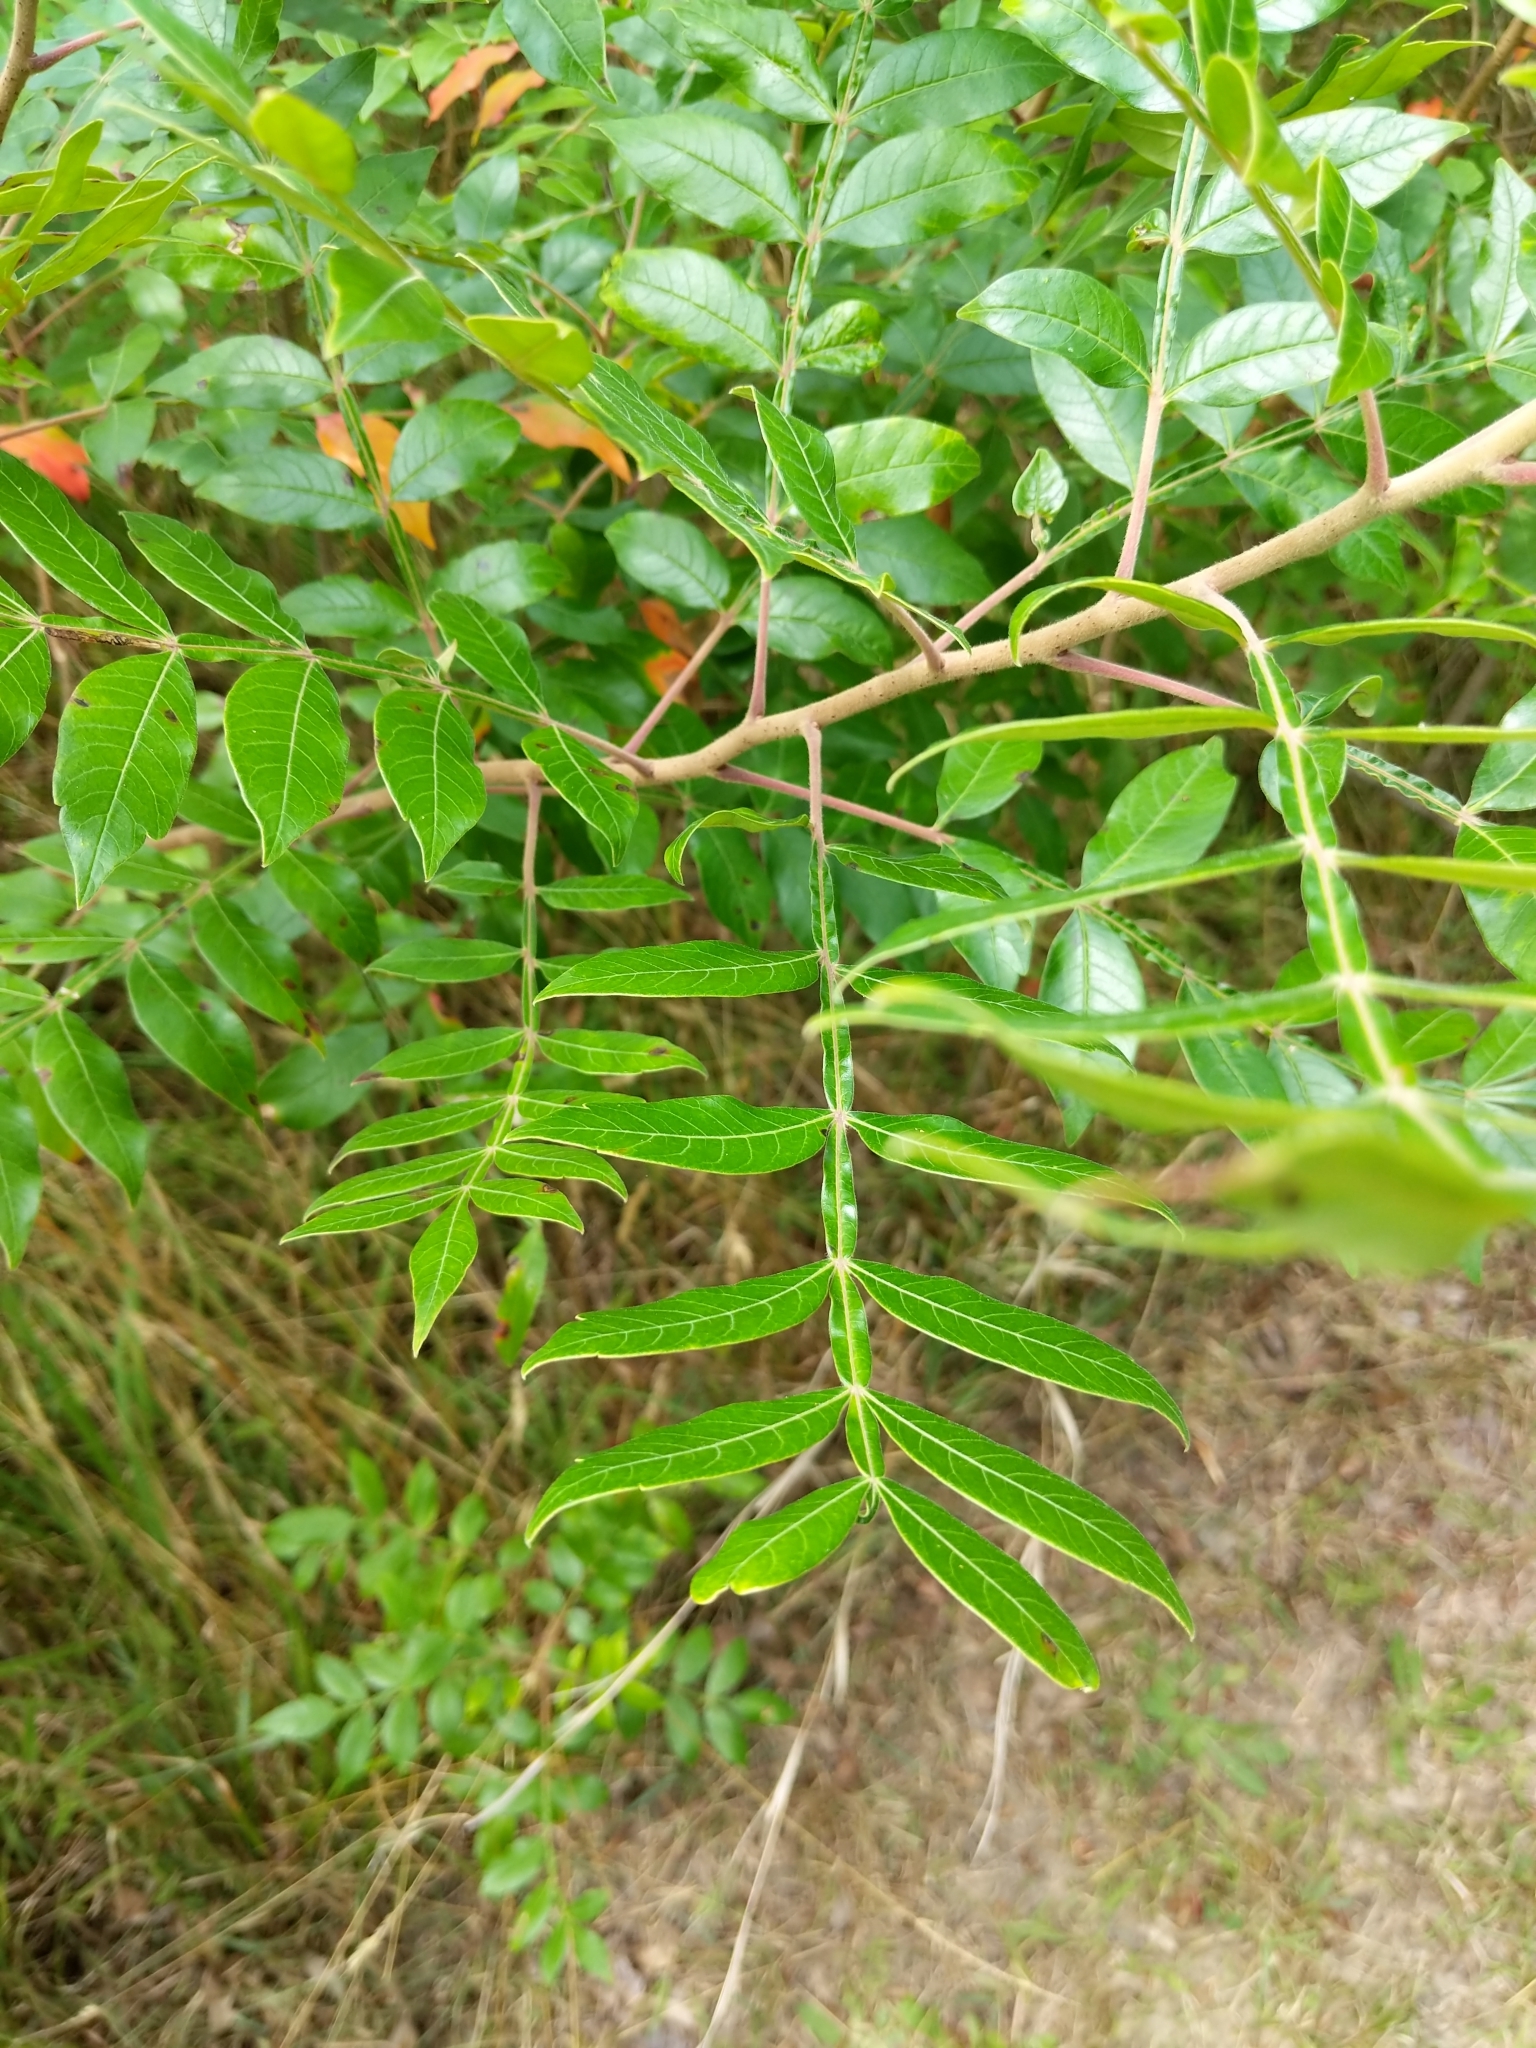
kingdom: Plantae
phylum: Tracheophyta
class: Magnoliopsida
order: Sapindales
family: Anacardiaceae
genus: Rhus
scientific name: Rhus copallina
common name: Shining sumac
